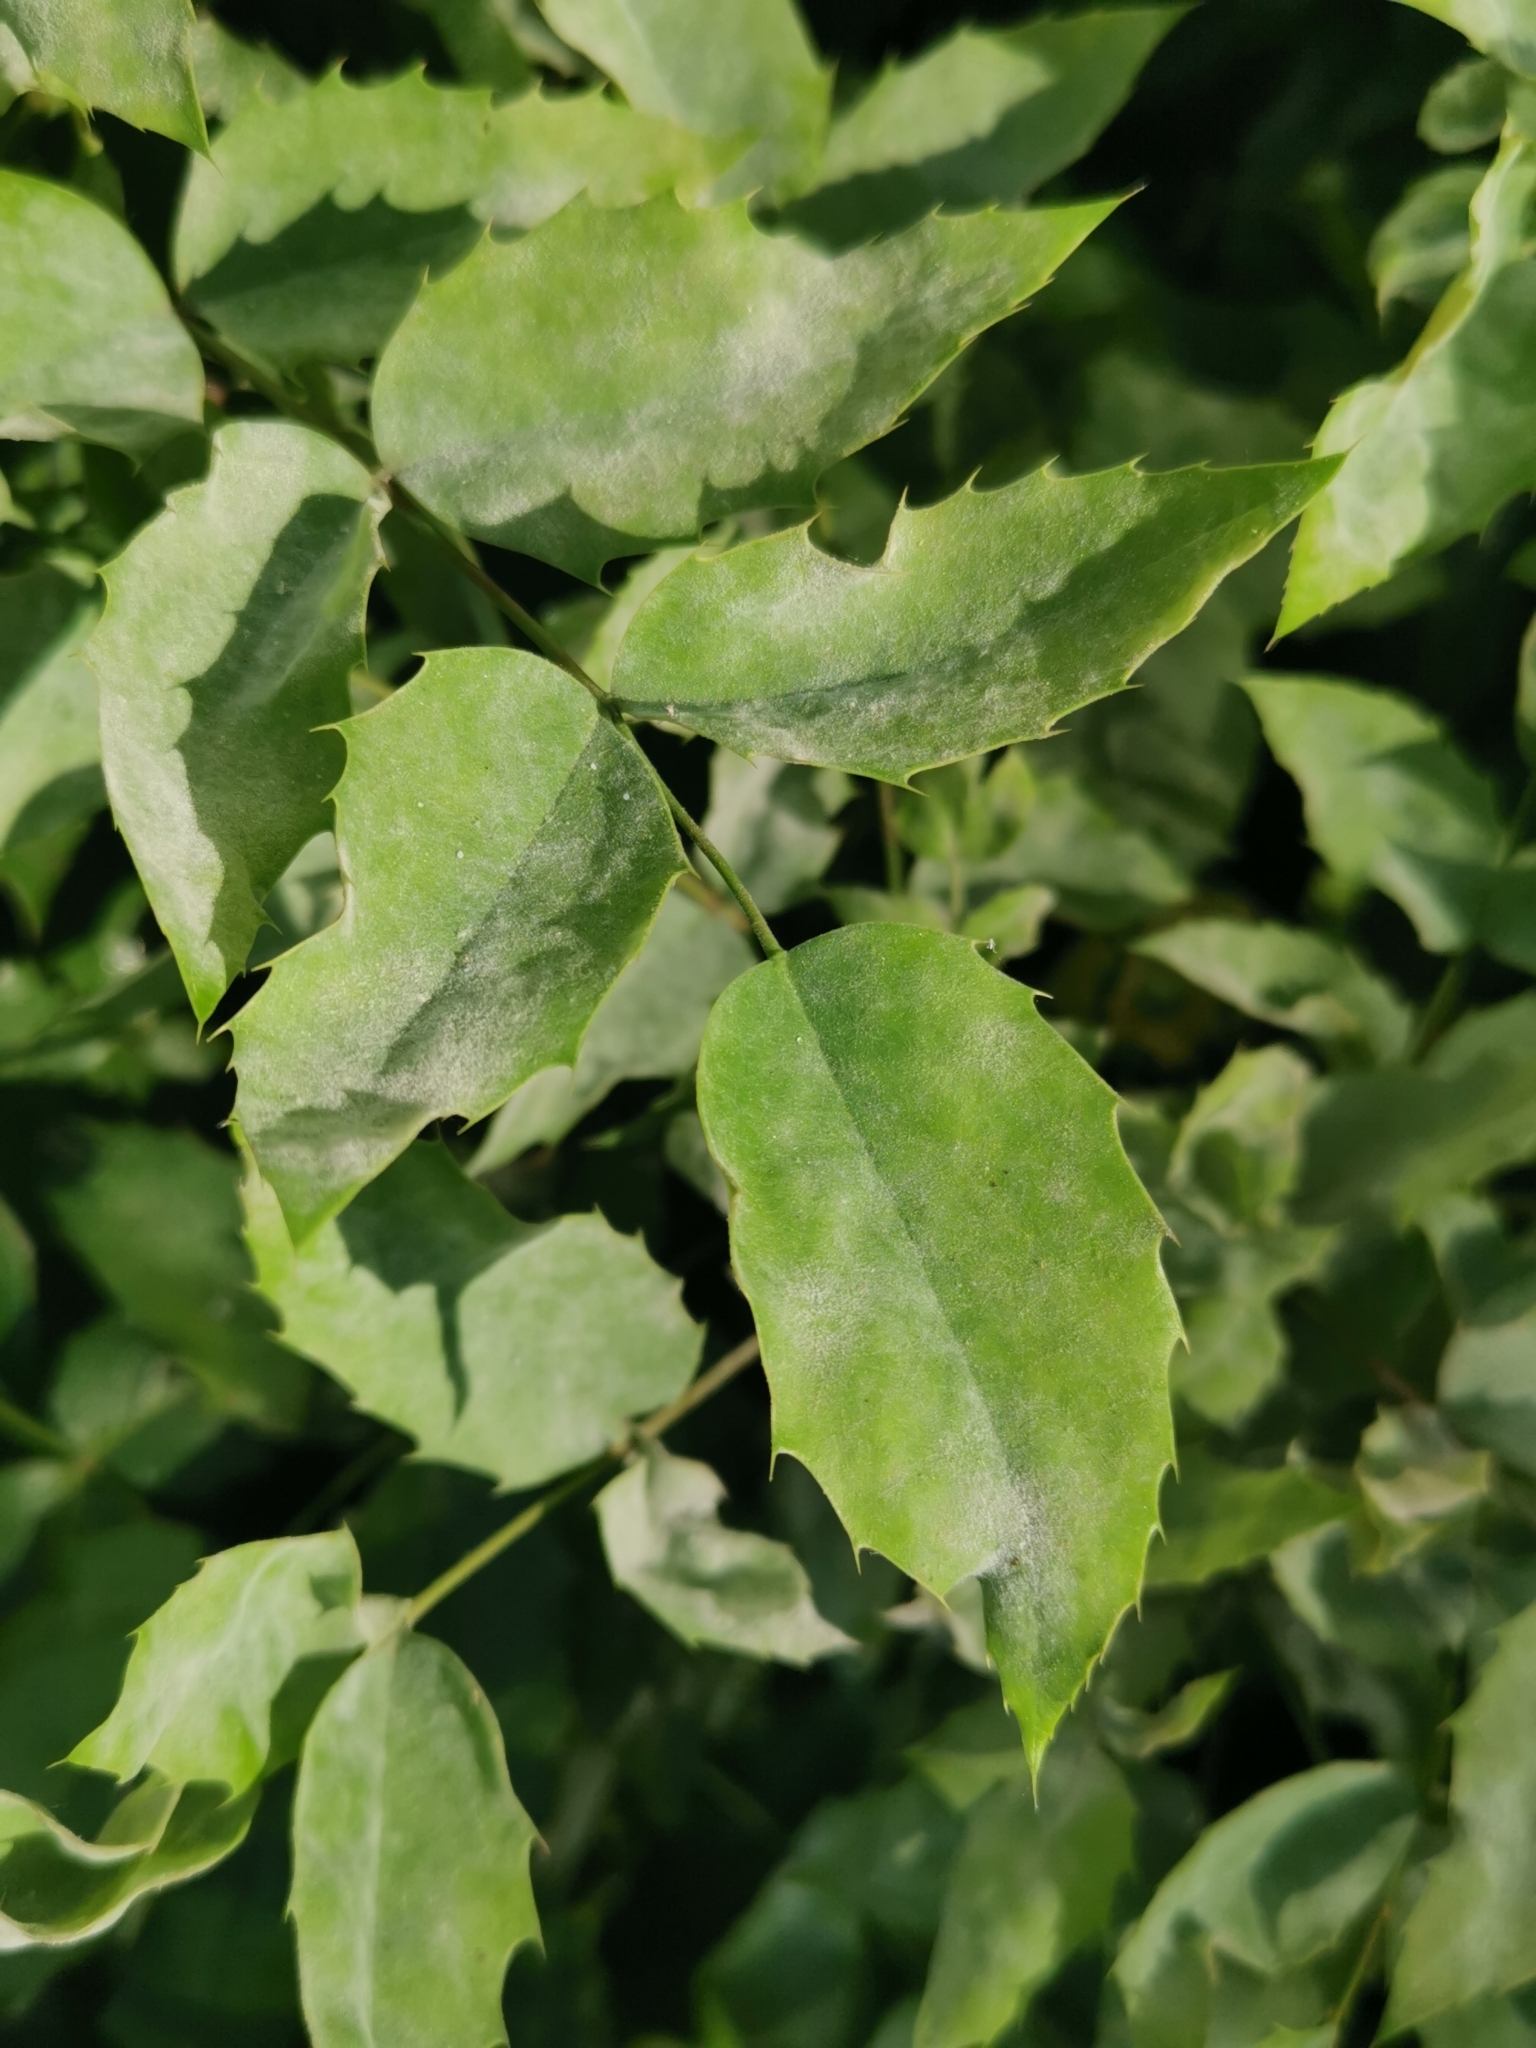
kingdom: Fungi
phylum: Ascomycota
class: Leotiomycetes
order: Helotiales
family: Erysiphaceae
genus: Erysiphe
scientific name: Erysiphe berberidis
